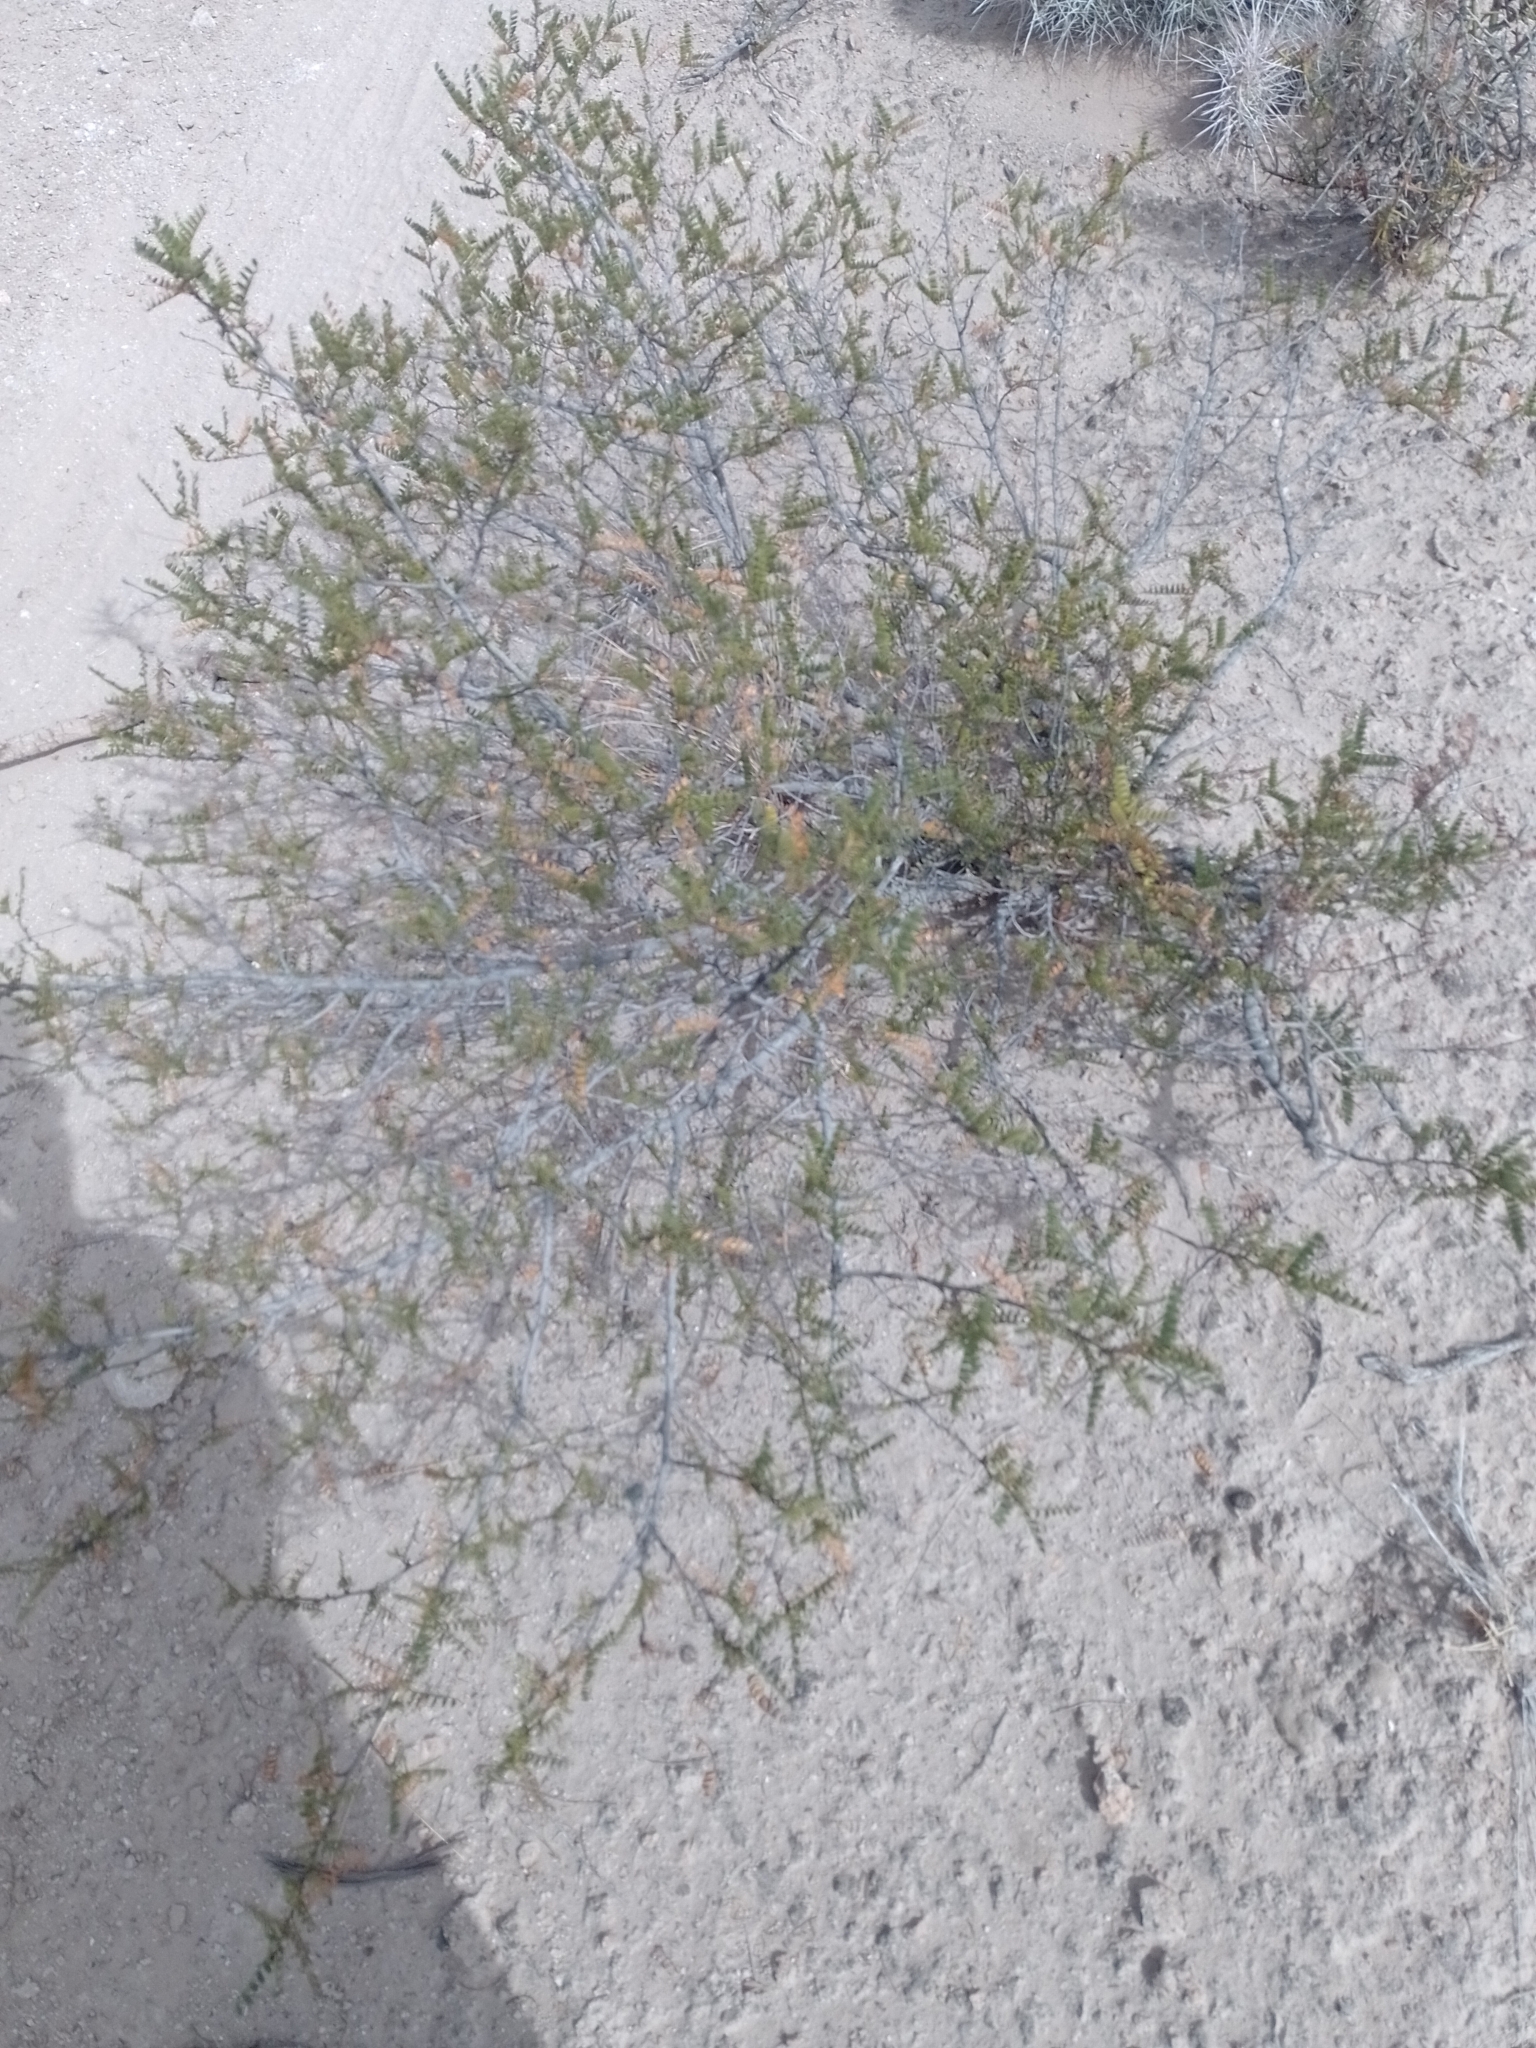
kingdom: Plantae
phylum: Tracheophyta
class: Magnoliopsida
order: Fabales
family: Fabaceae
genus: Zuccagnia
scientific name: Zuccagnia punctata
